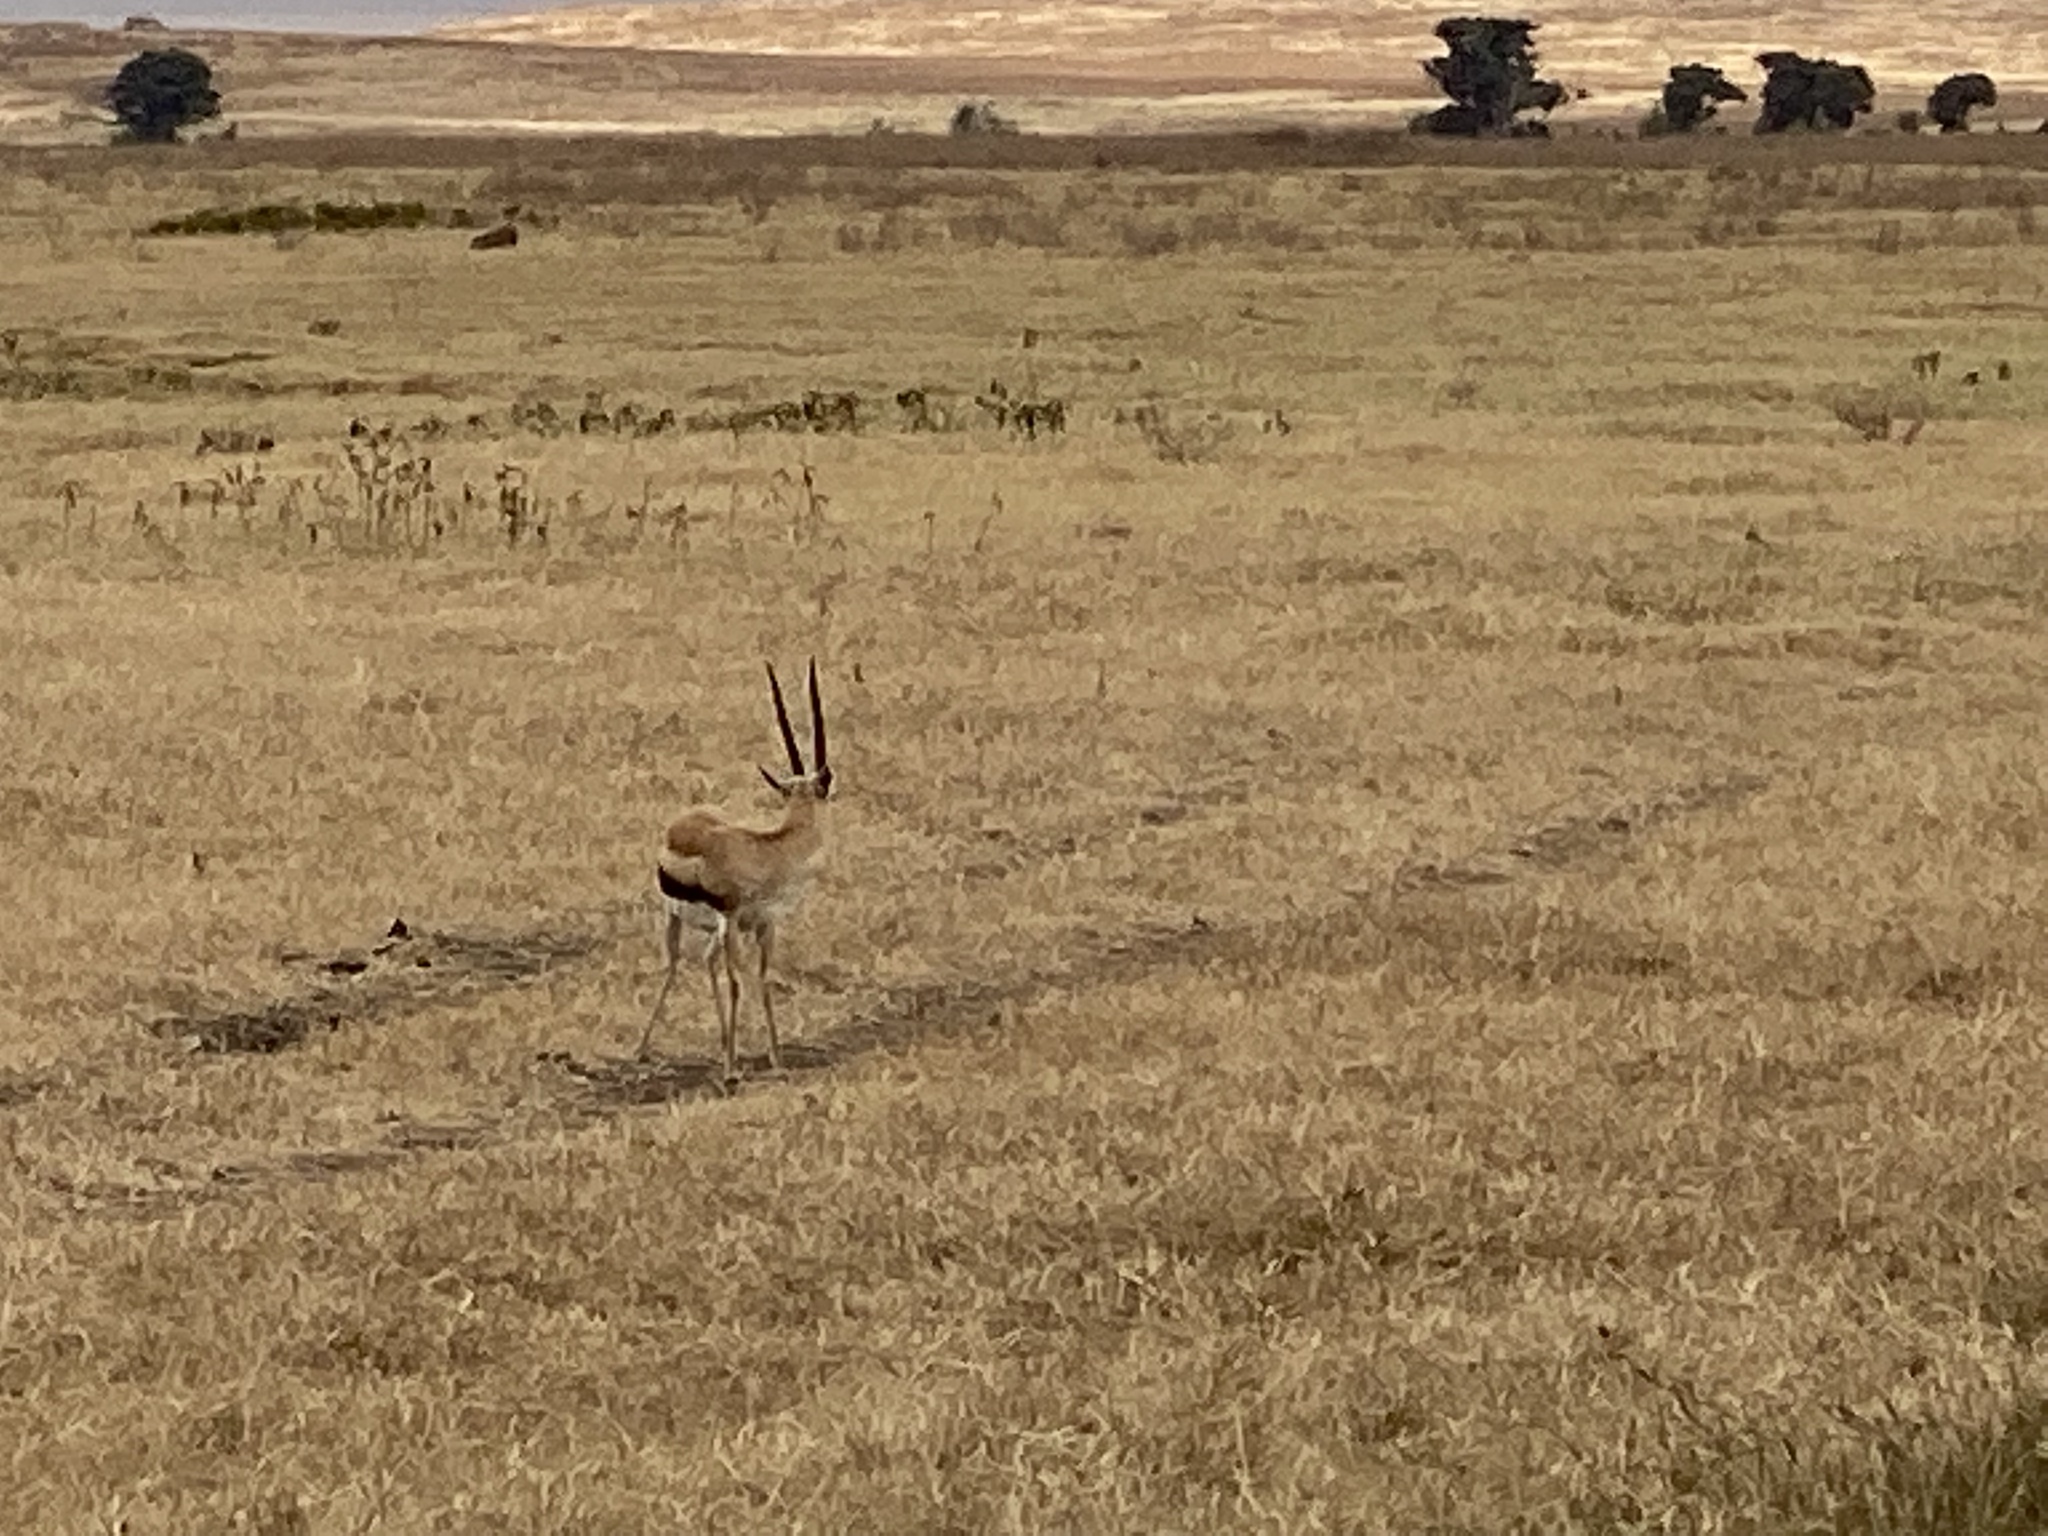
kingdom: Animalia
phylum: Chordata
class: Mammalia
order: Artiodactyla
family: Bovidae
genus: Eudorcas
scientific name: Eudorcas thomsonii
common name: Thomson's gazelle
